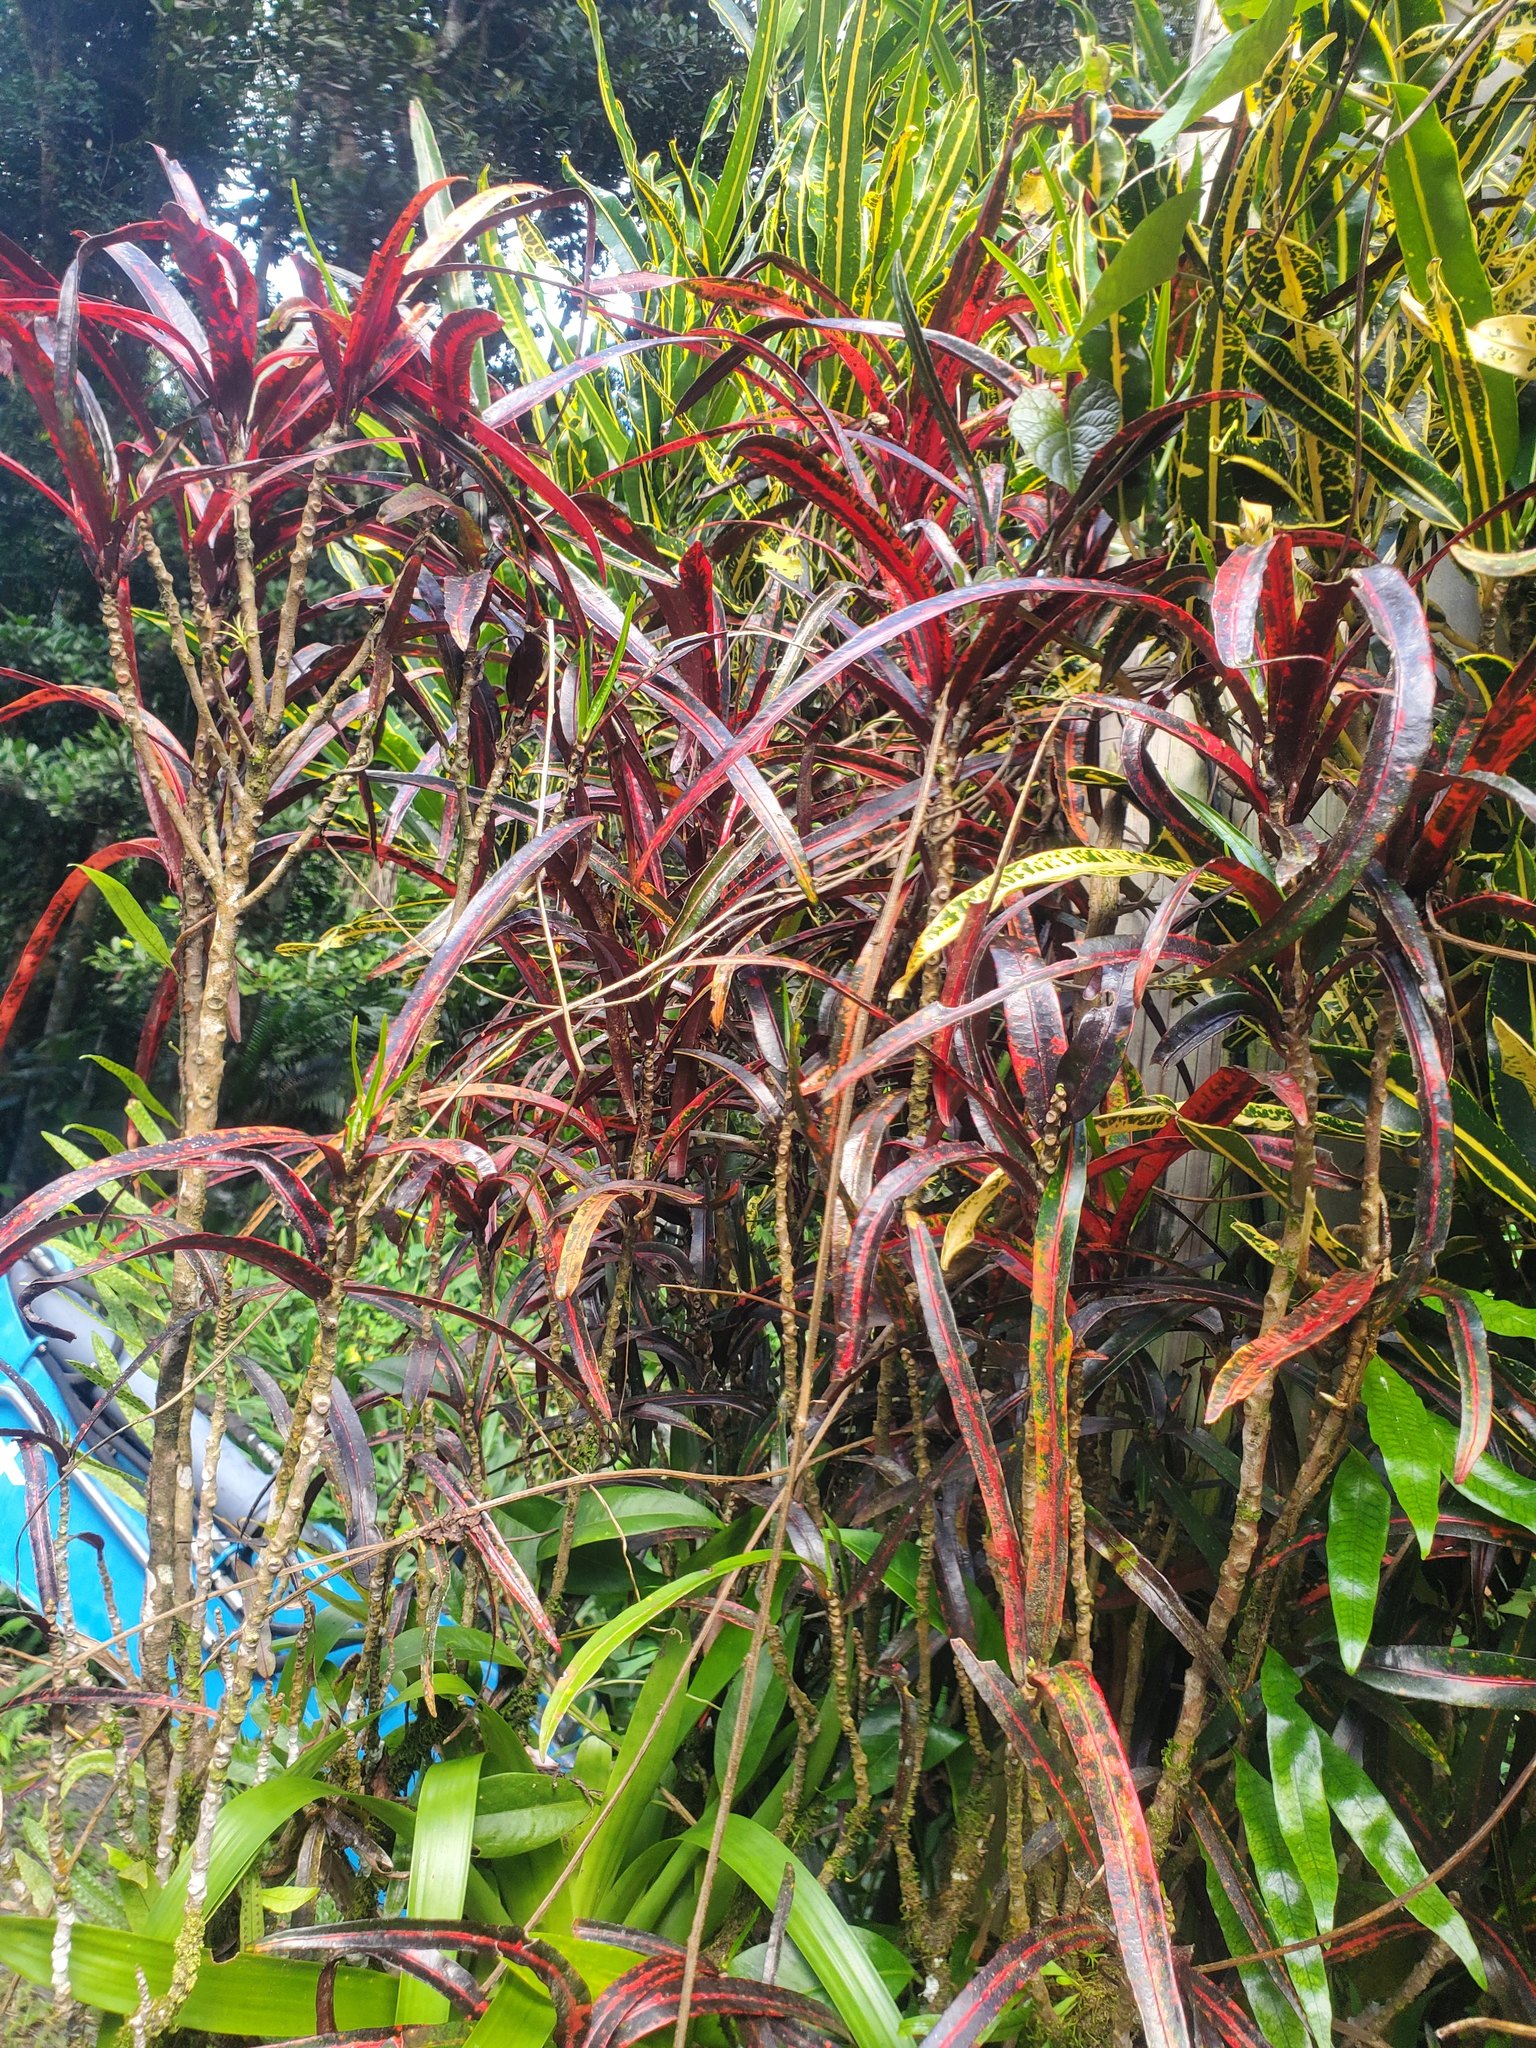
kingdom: Plantae
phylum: Tracheophyta
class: Magnoliopsida
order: Malpighiales
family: Euphorbiaceae
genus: Codiaeum
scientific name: Codiaeum variegatum
